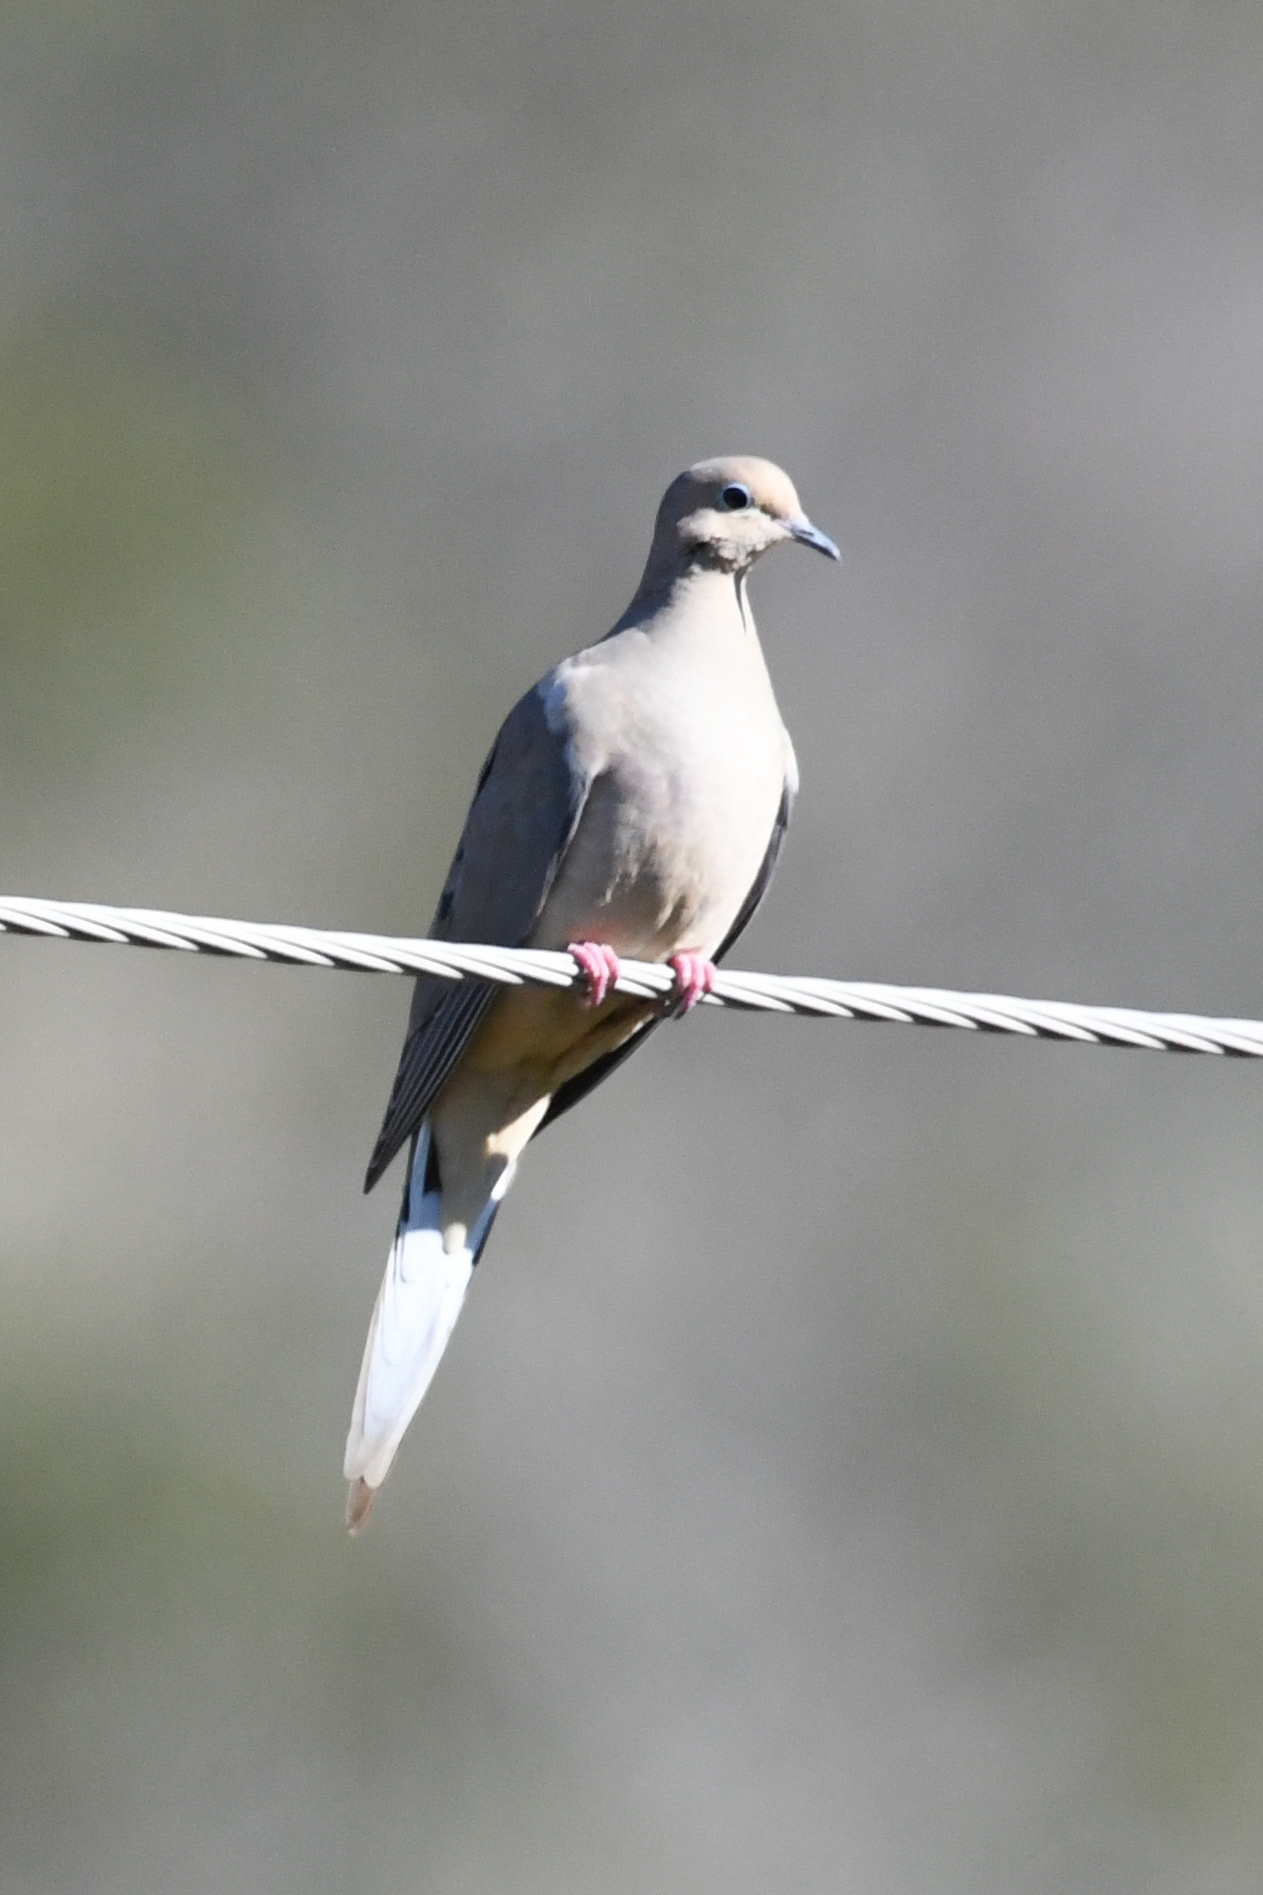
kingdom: Animalia
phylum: Chordata
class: Aves
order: Columbiformes
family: Columbidae
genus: Zenaida
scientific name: Zenaida macroura
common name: Mourning dove
